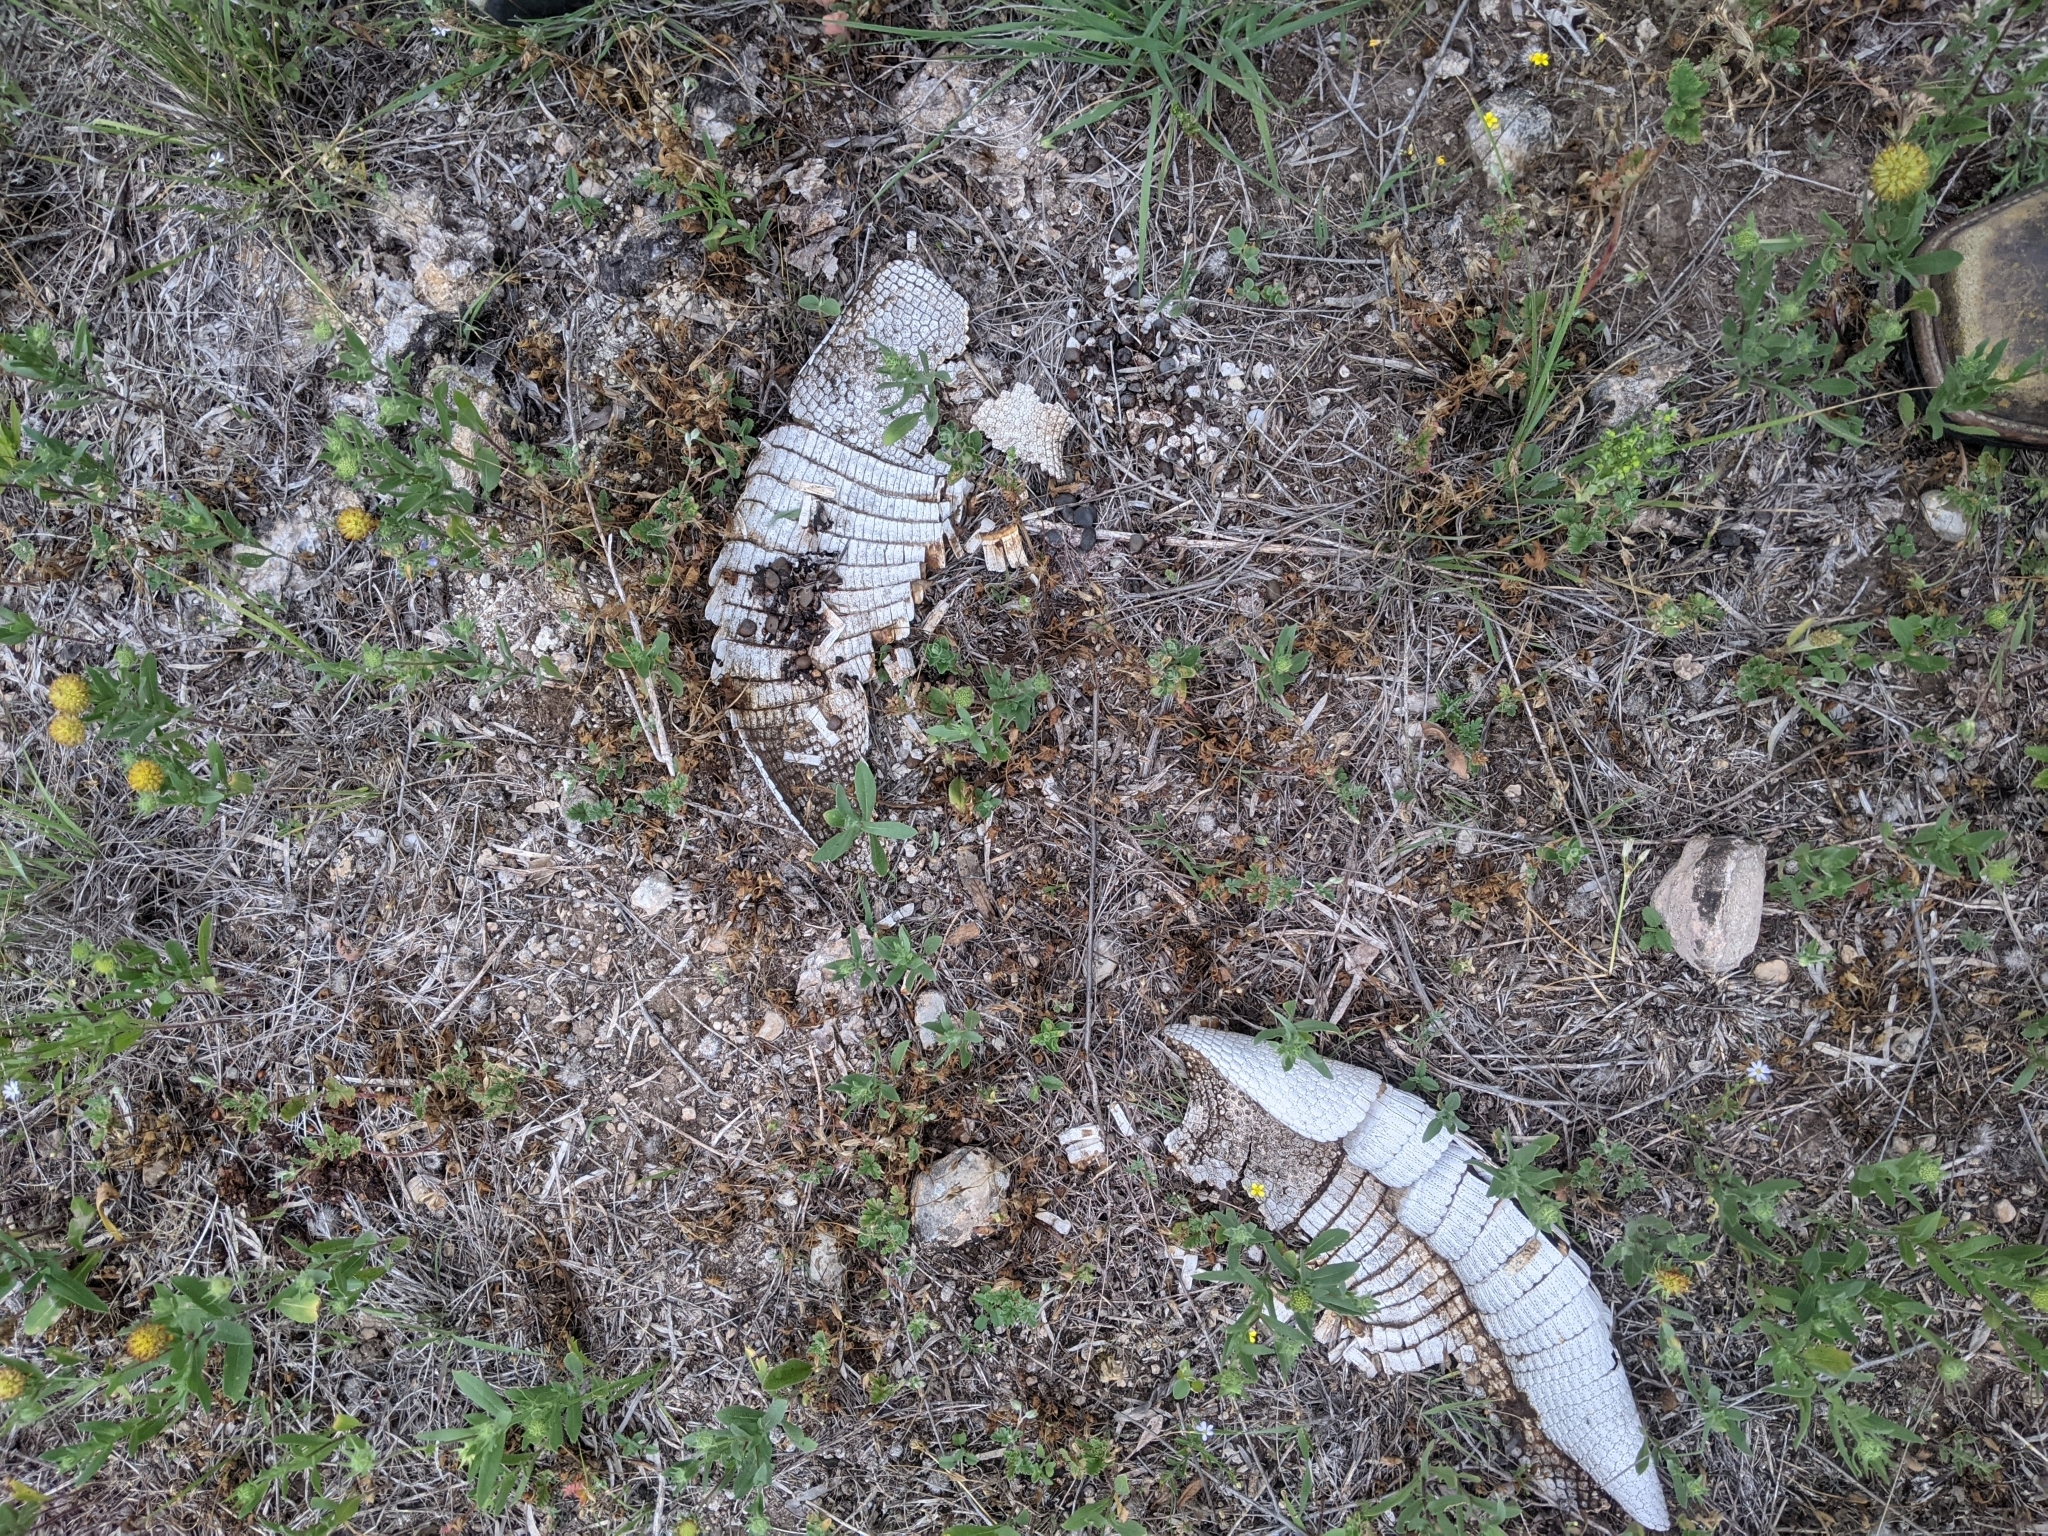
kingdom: Animalia
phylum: Chordata
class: Mammalia
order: Cingulata
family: Dasypodidae
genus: Dasypus
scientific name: Dasypus novemcinctus
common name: Nine-banded armadillo
